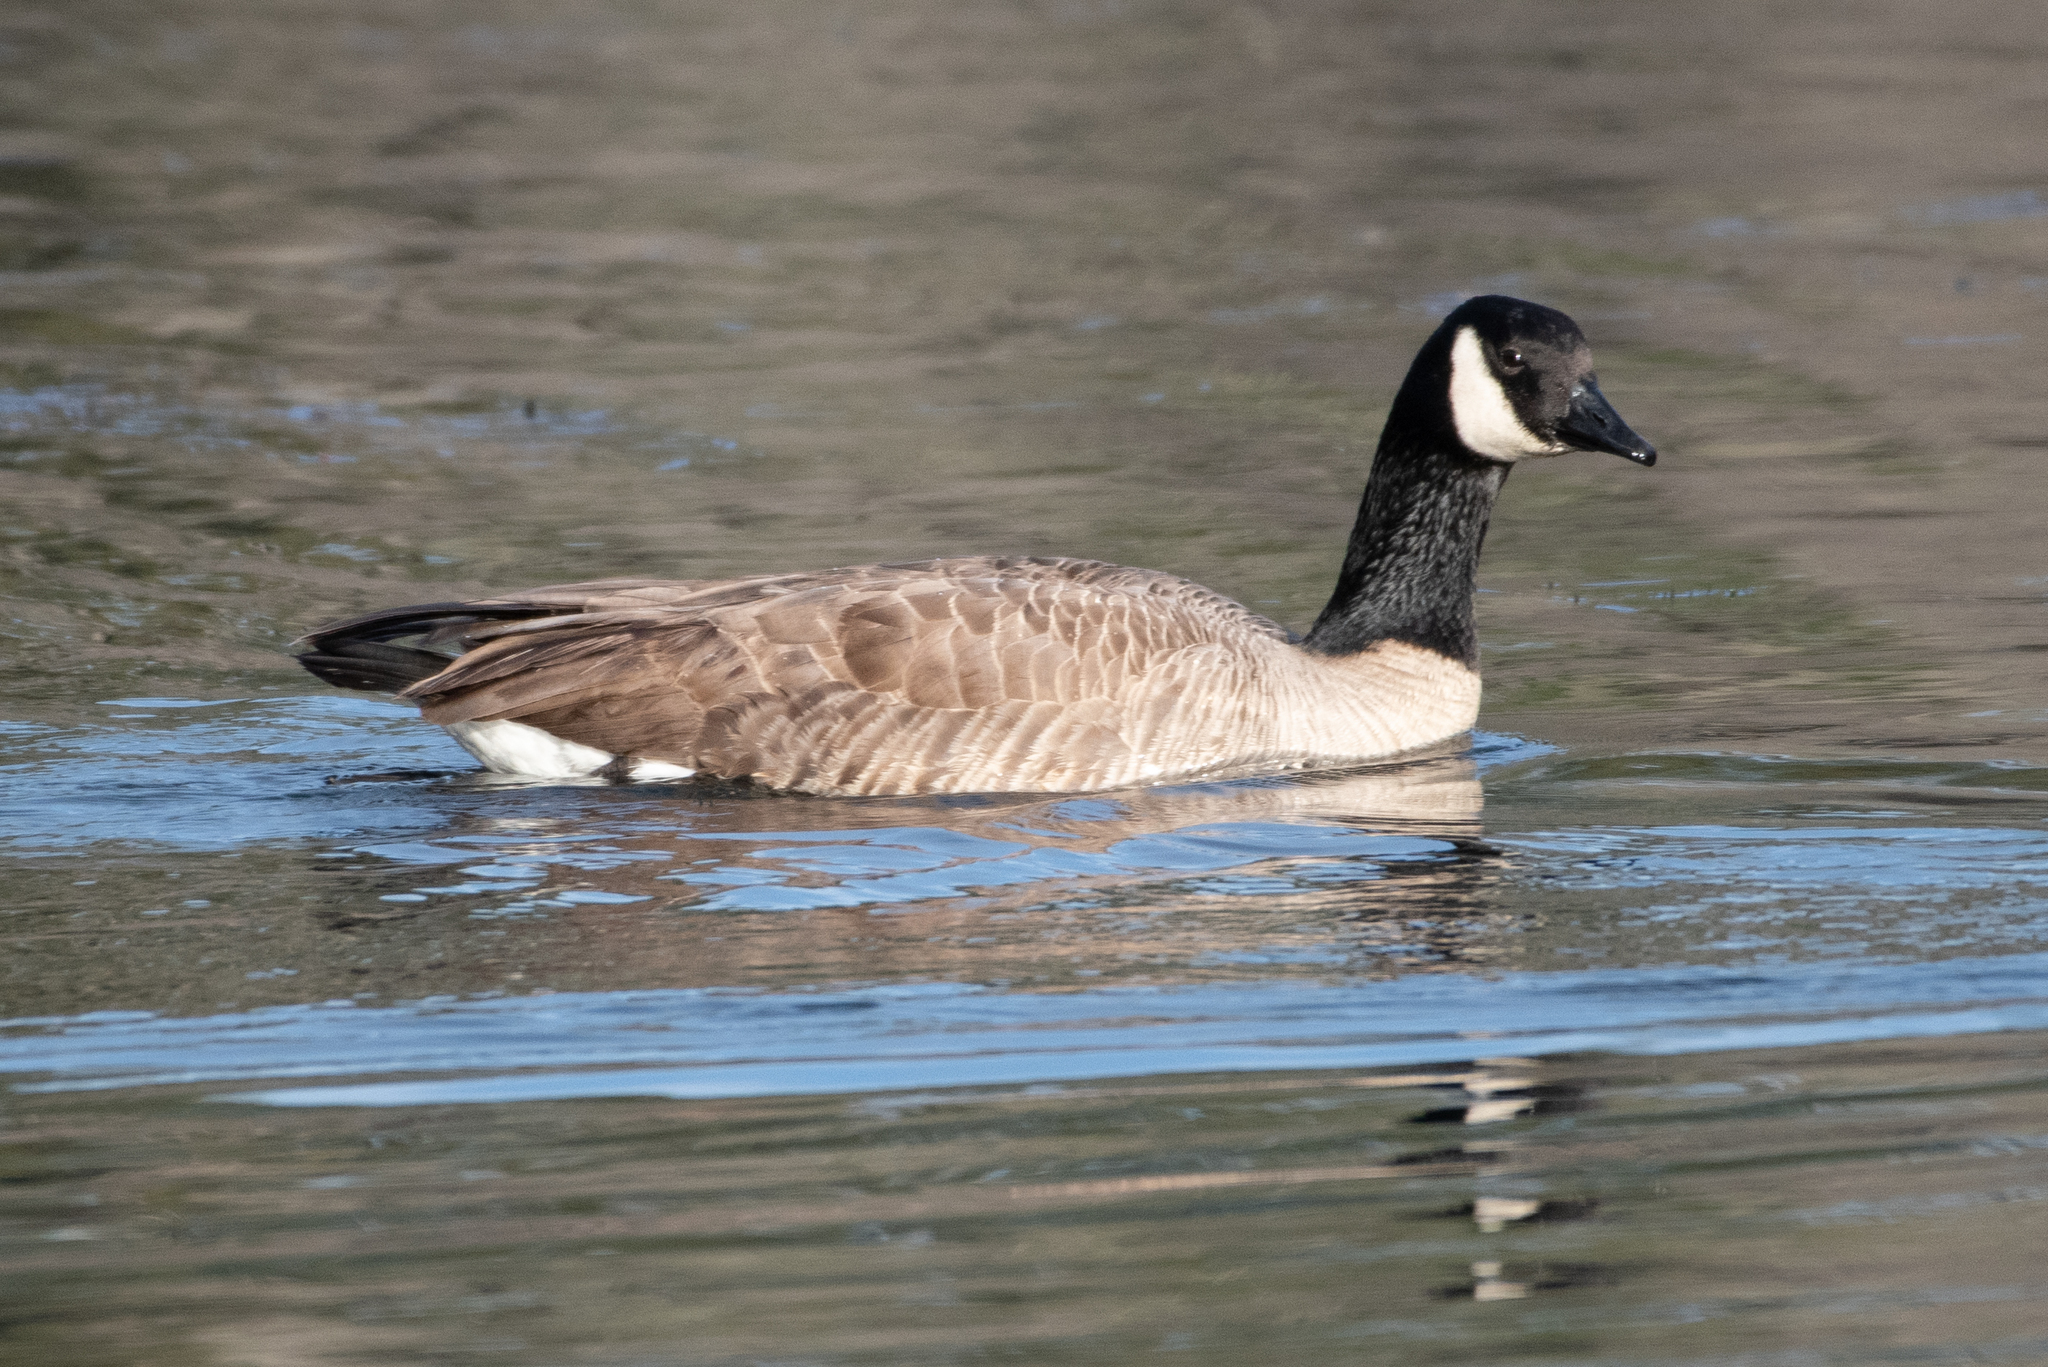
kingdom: Animalia
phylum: Chordata
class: Aves
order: Anseriformes
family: Anatidae
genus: Branta
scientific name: Branta canadensis
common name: Canada goose
